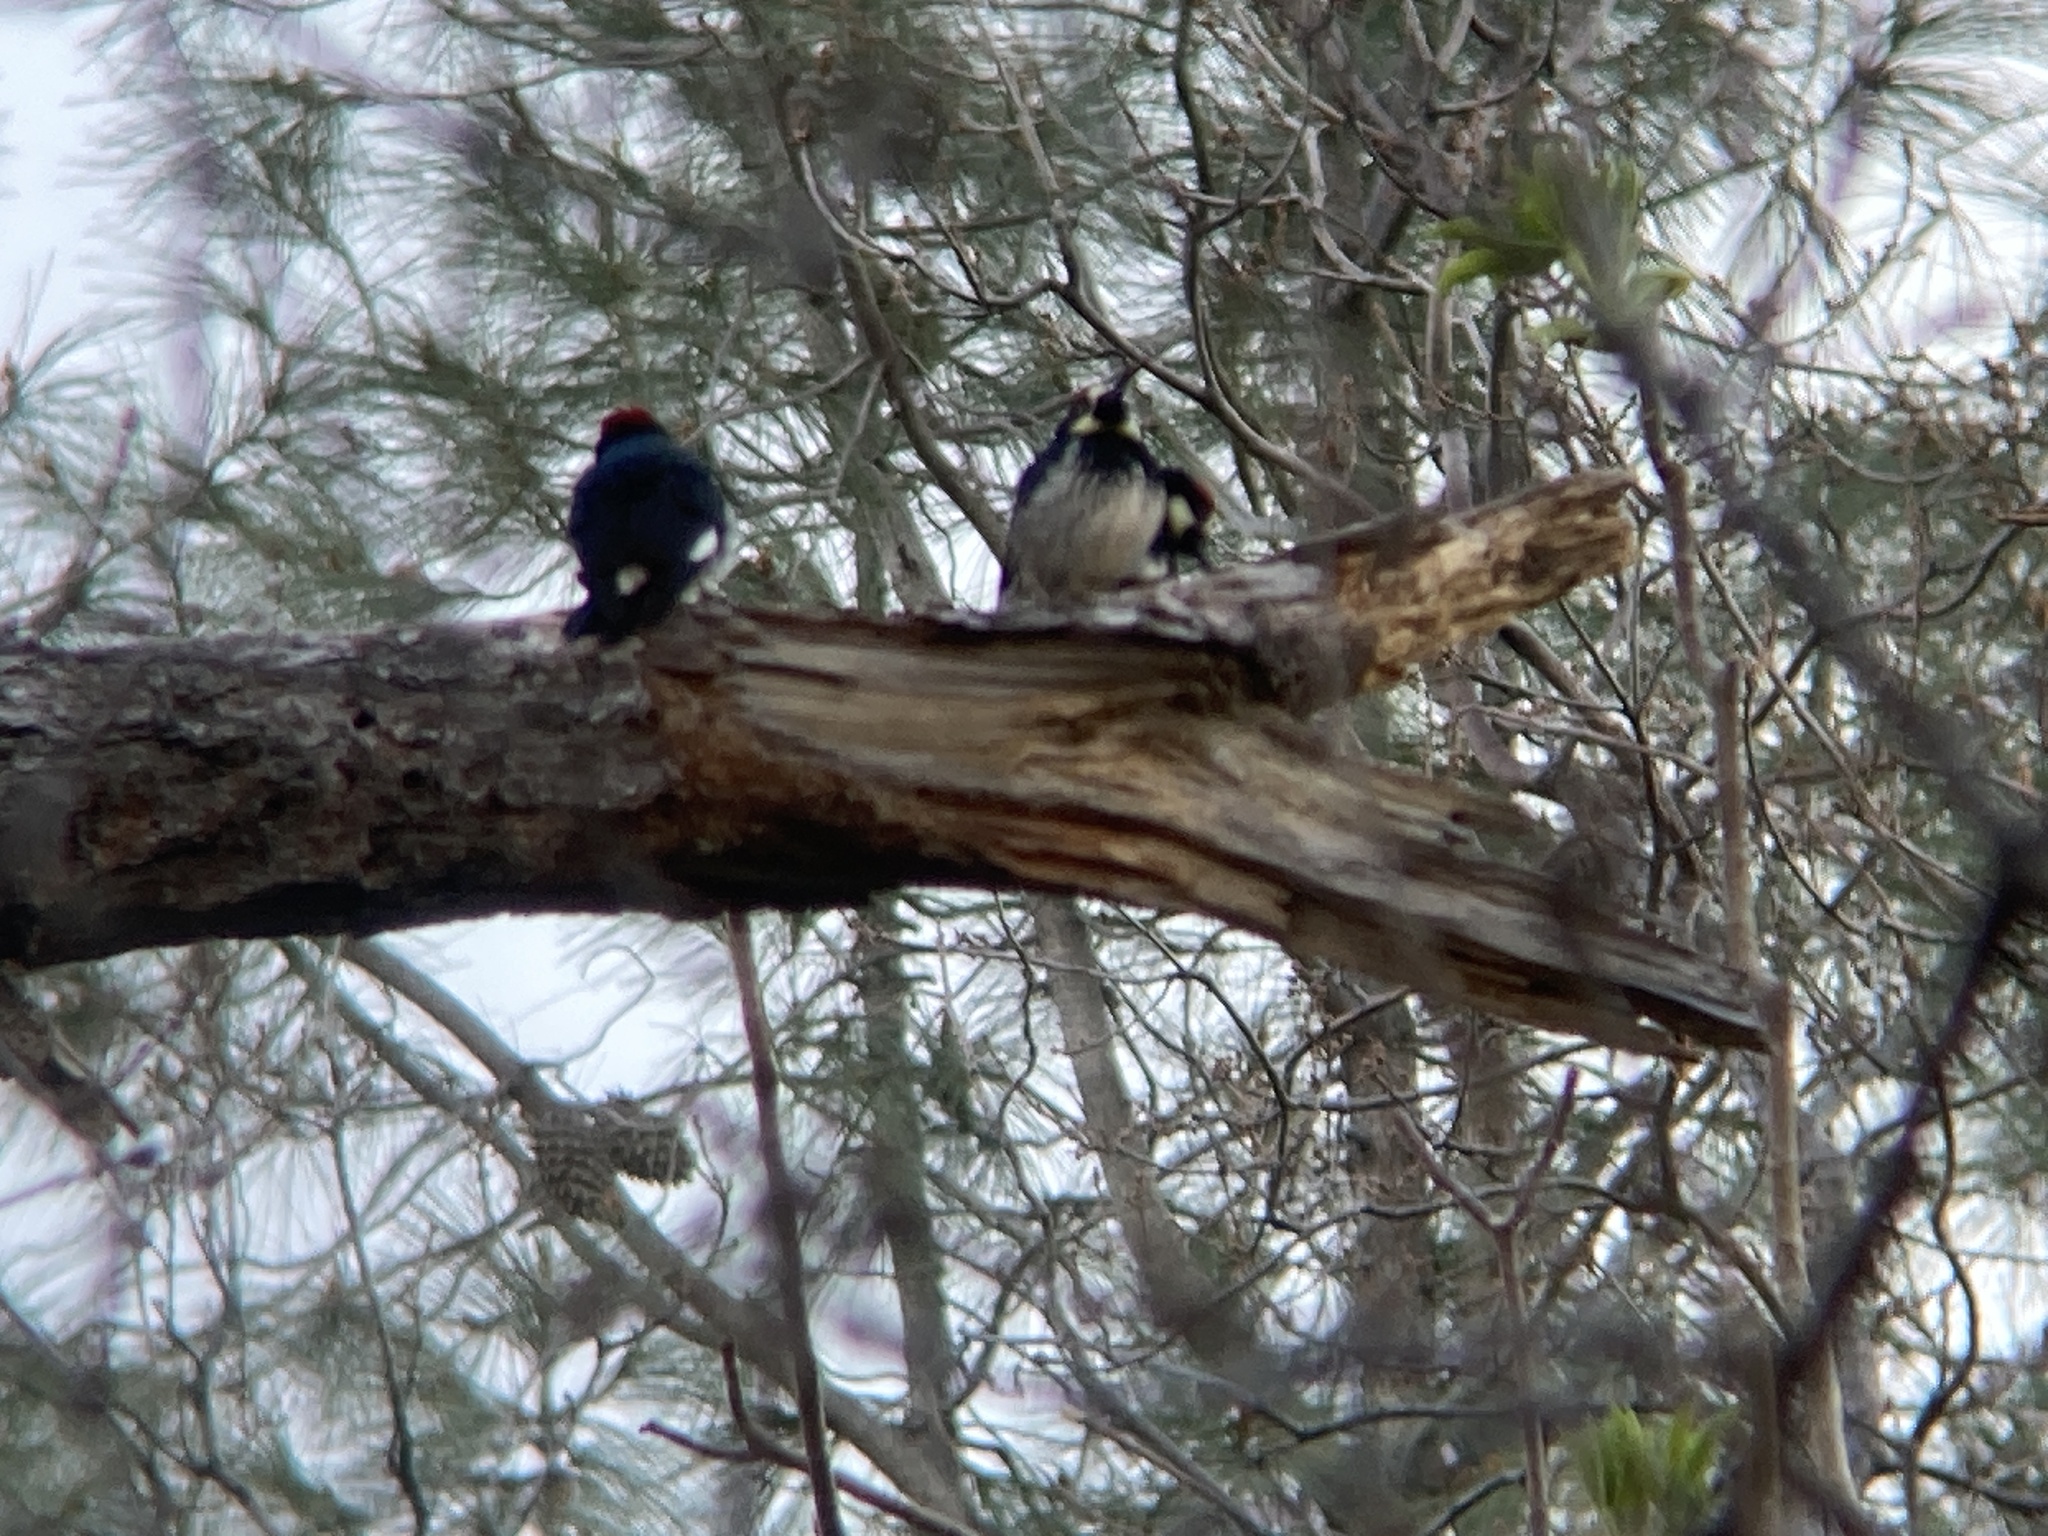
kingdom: Animalia
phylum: Chordata
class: Aves
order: Piciformes
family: Picidae
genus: Melanerpes
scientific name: Melanerpes formicivorus
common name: Acorn woodpecker
